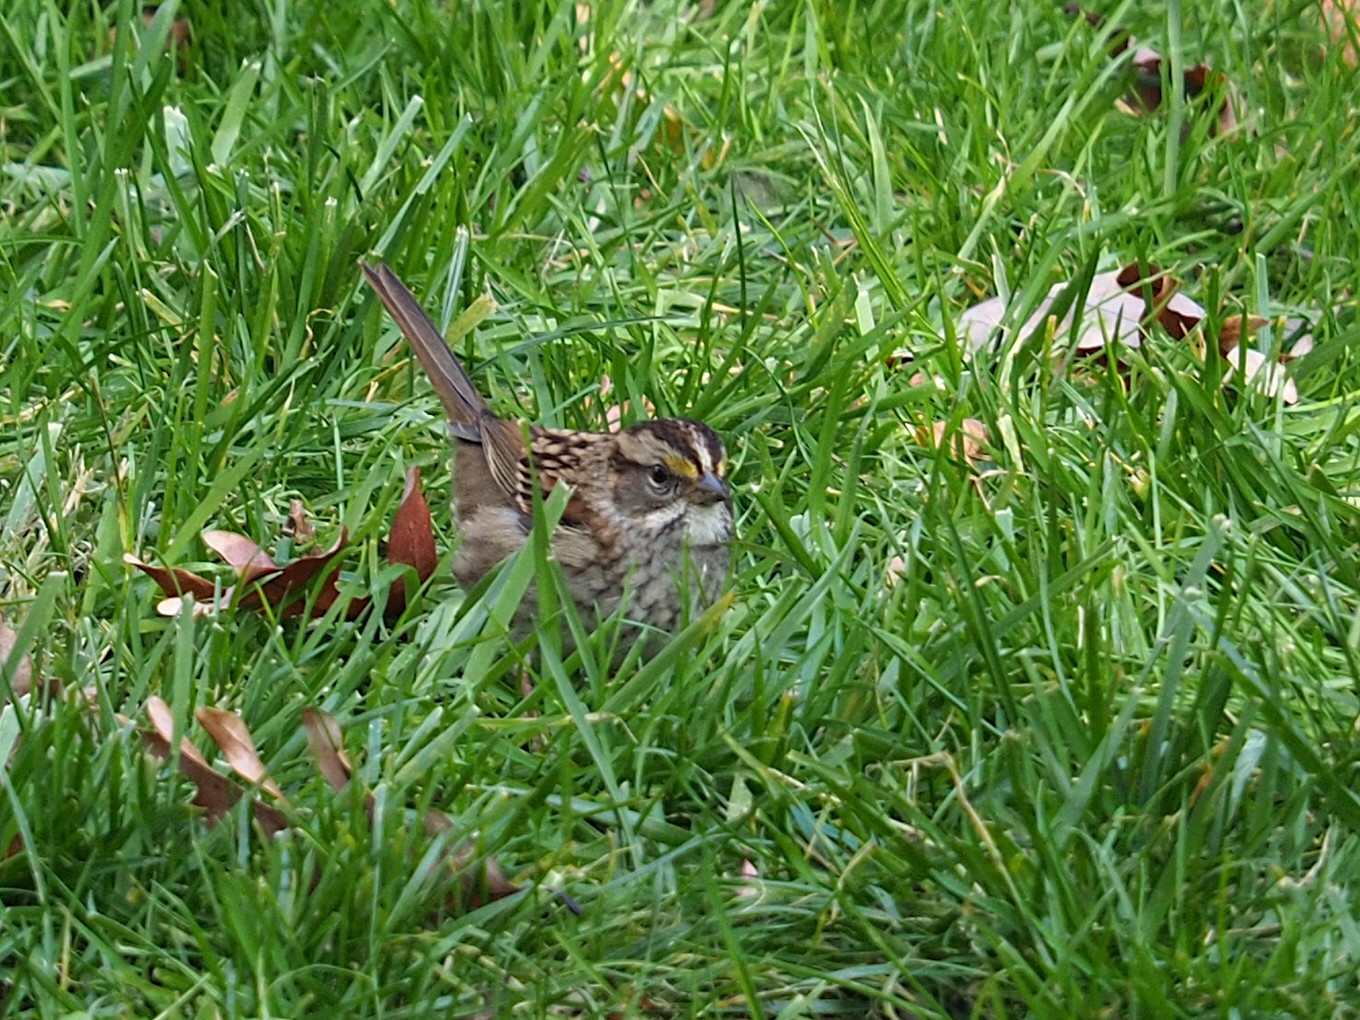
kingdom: Animalia
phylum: Chordata
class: Aves
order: Passeriformes
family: Passerellidae
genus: Zonotrichia
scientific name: Zonotrichia albicollis
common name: White-throated sparrow
